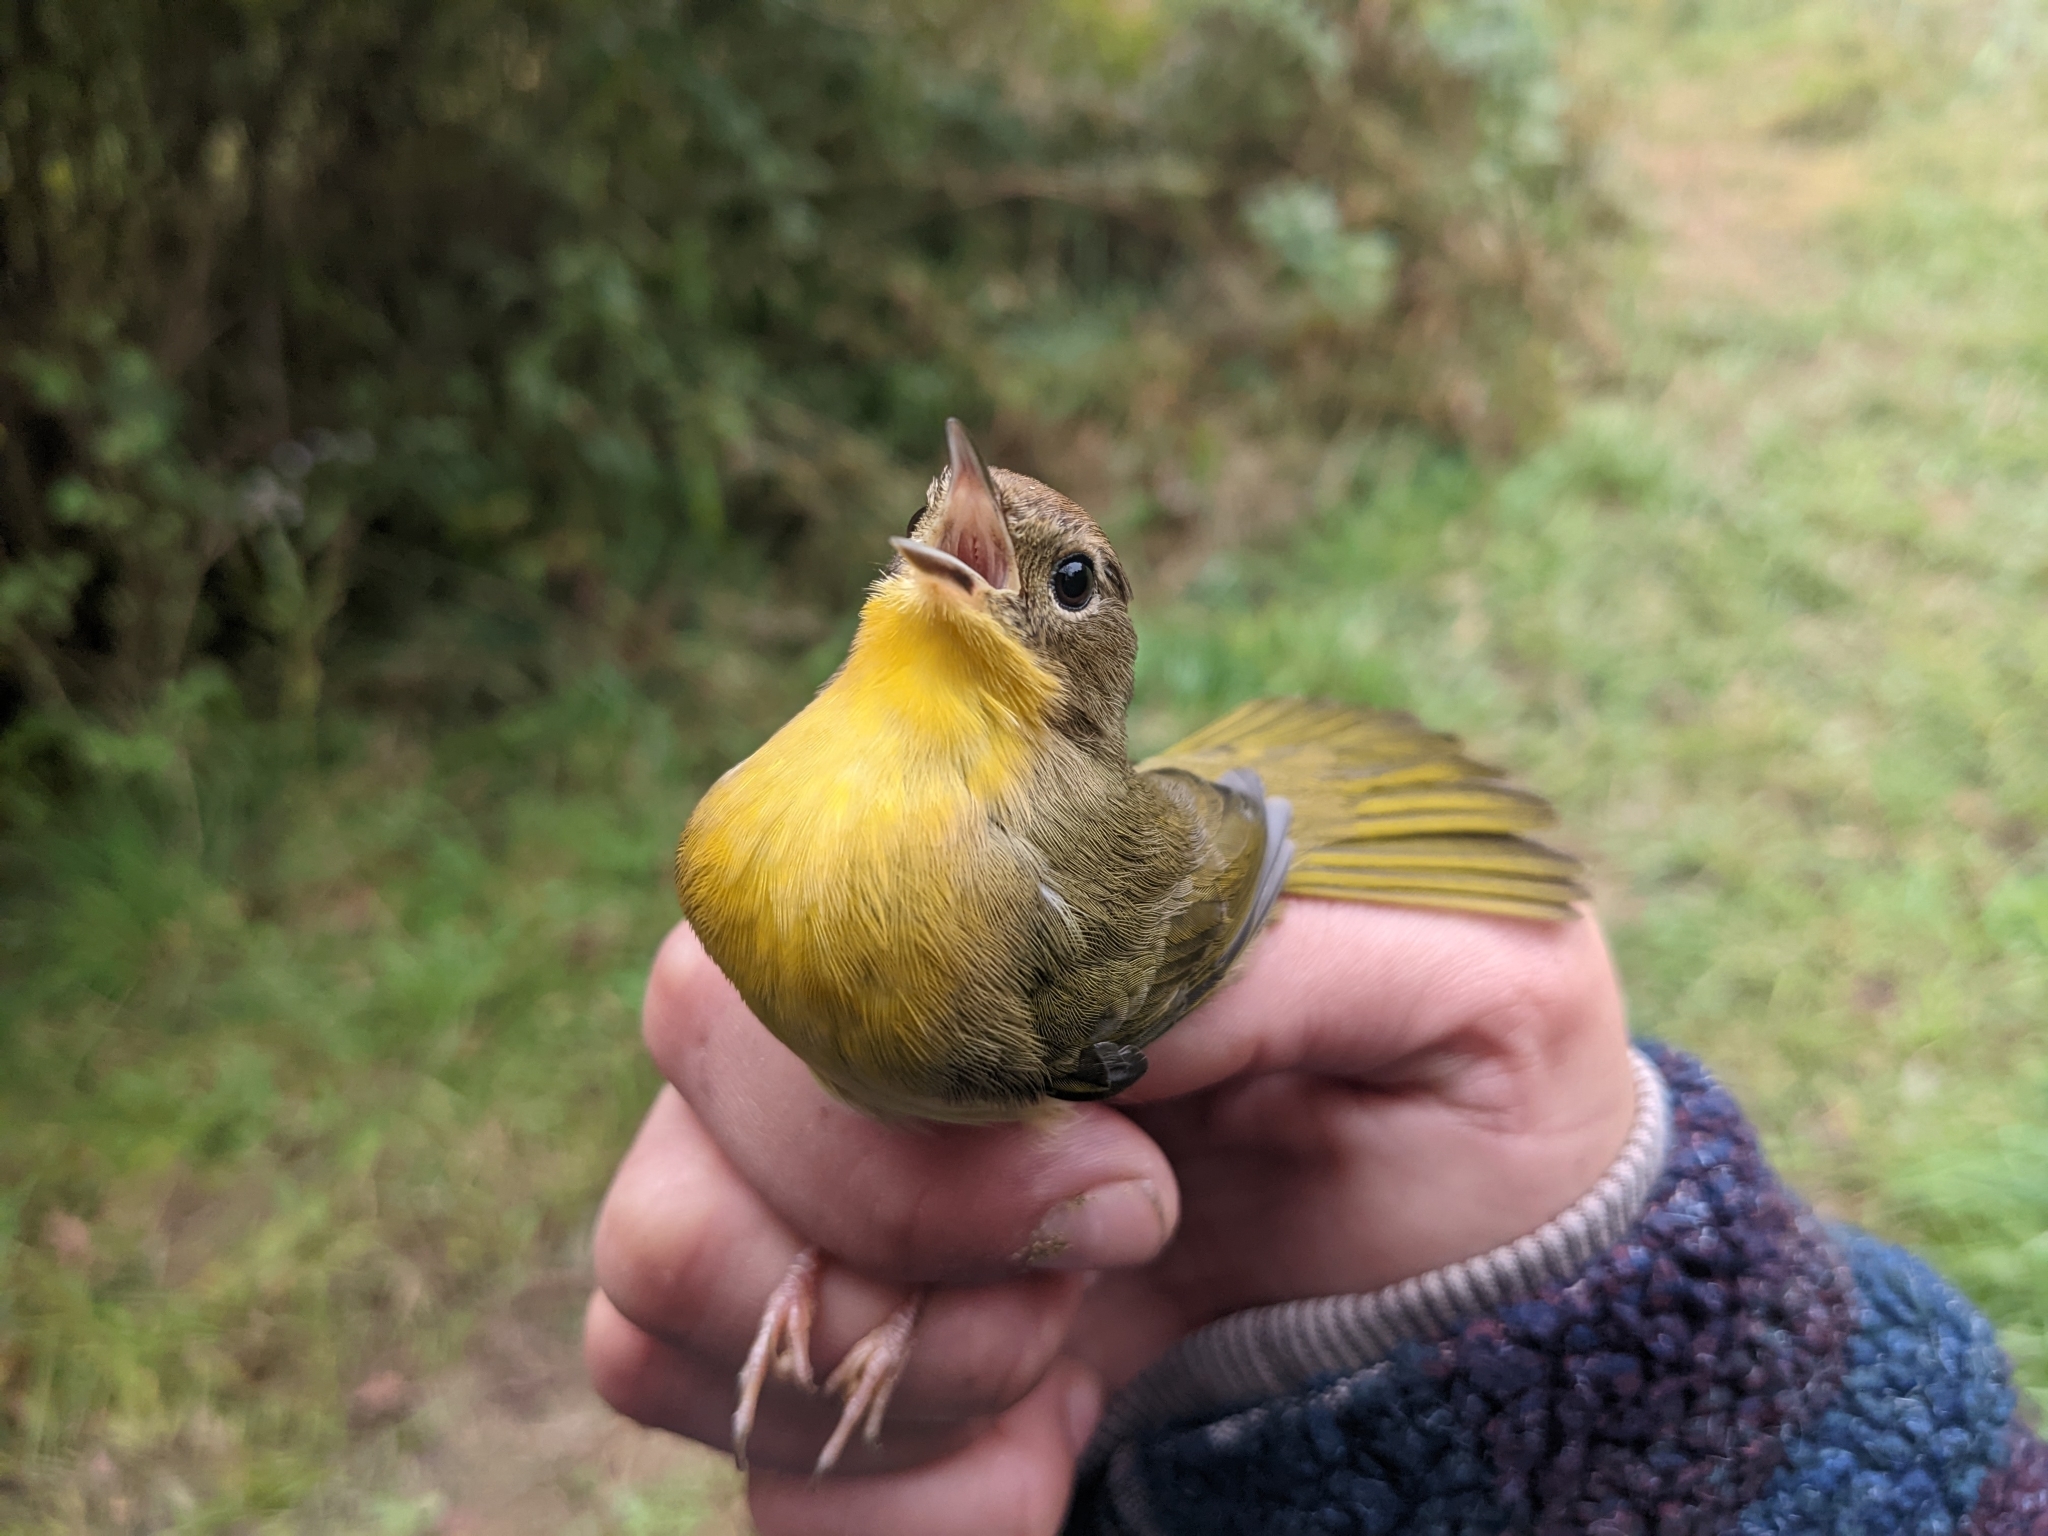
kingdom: Animalia
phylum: Chordata
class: Aves
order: Passeriformes
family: Parulidae
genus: Geothlypis
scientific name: Geothlypis trichas
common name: Common yellowthroat
